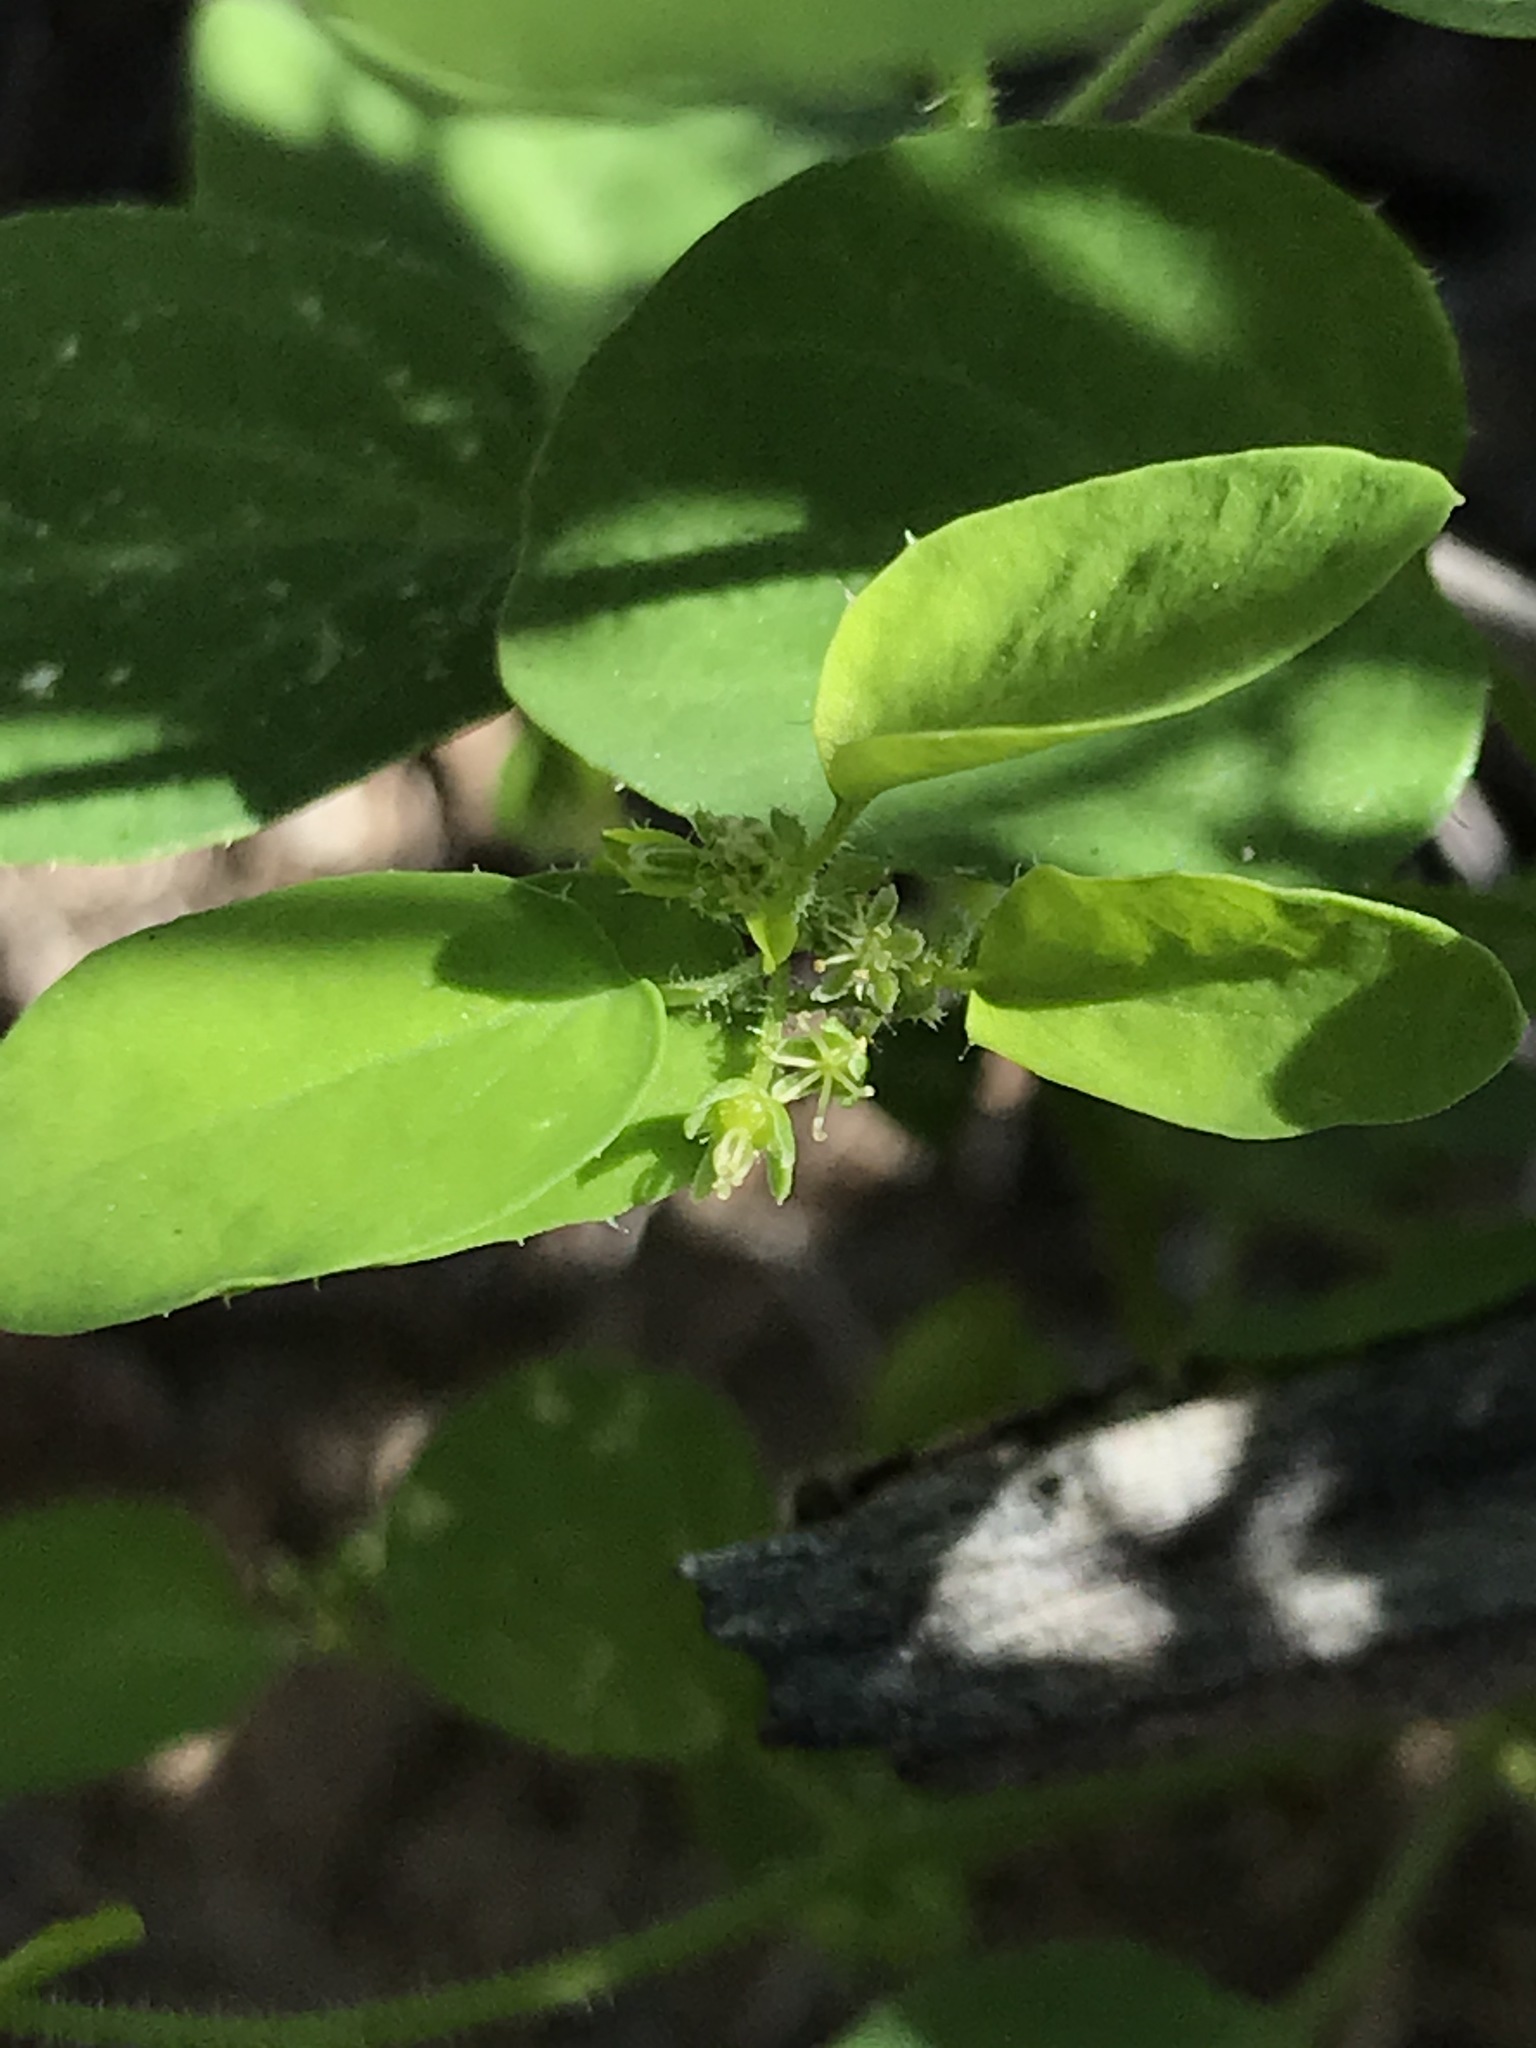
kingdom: Plantae
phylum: Tracheophyta
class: Magnoliopsida
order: Malpighiales
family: Phyllanthaceae
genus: Andrachne
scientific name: Andrachne microphylla
